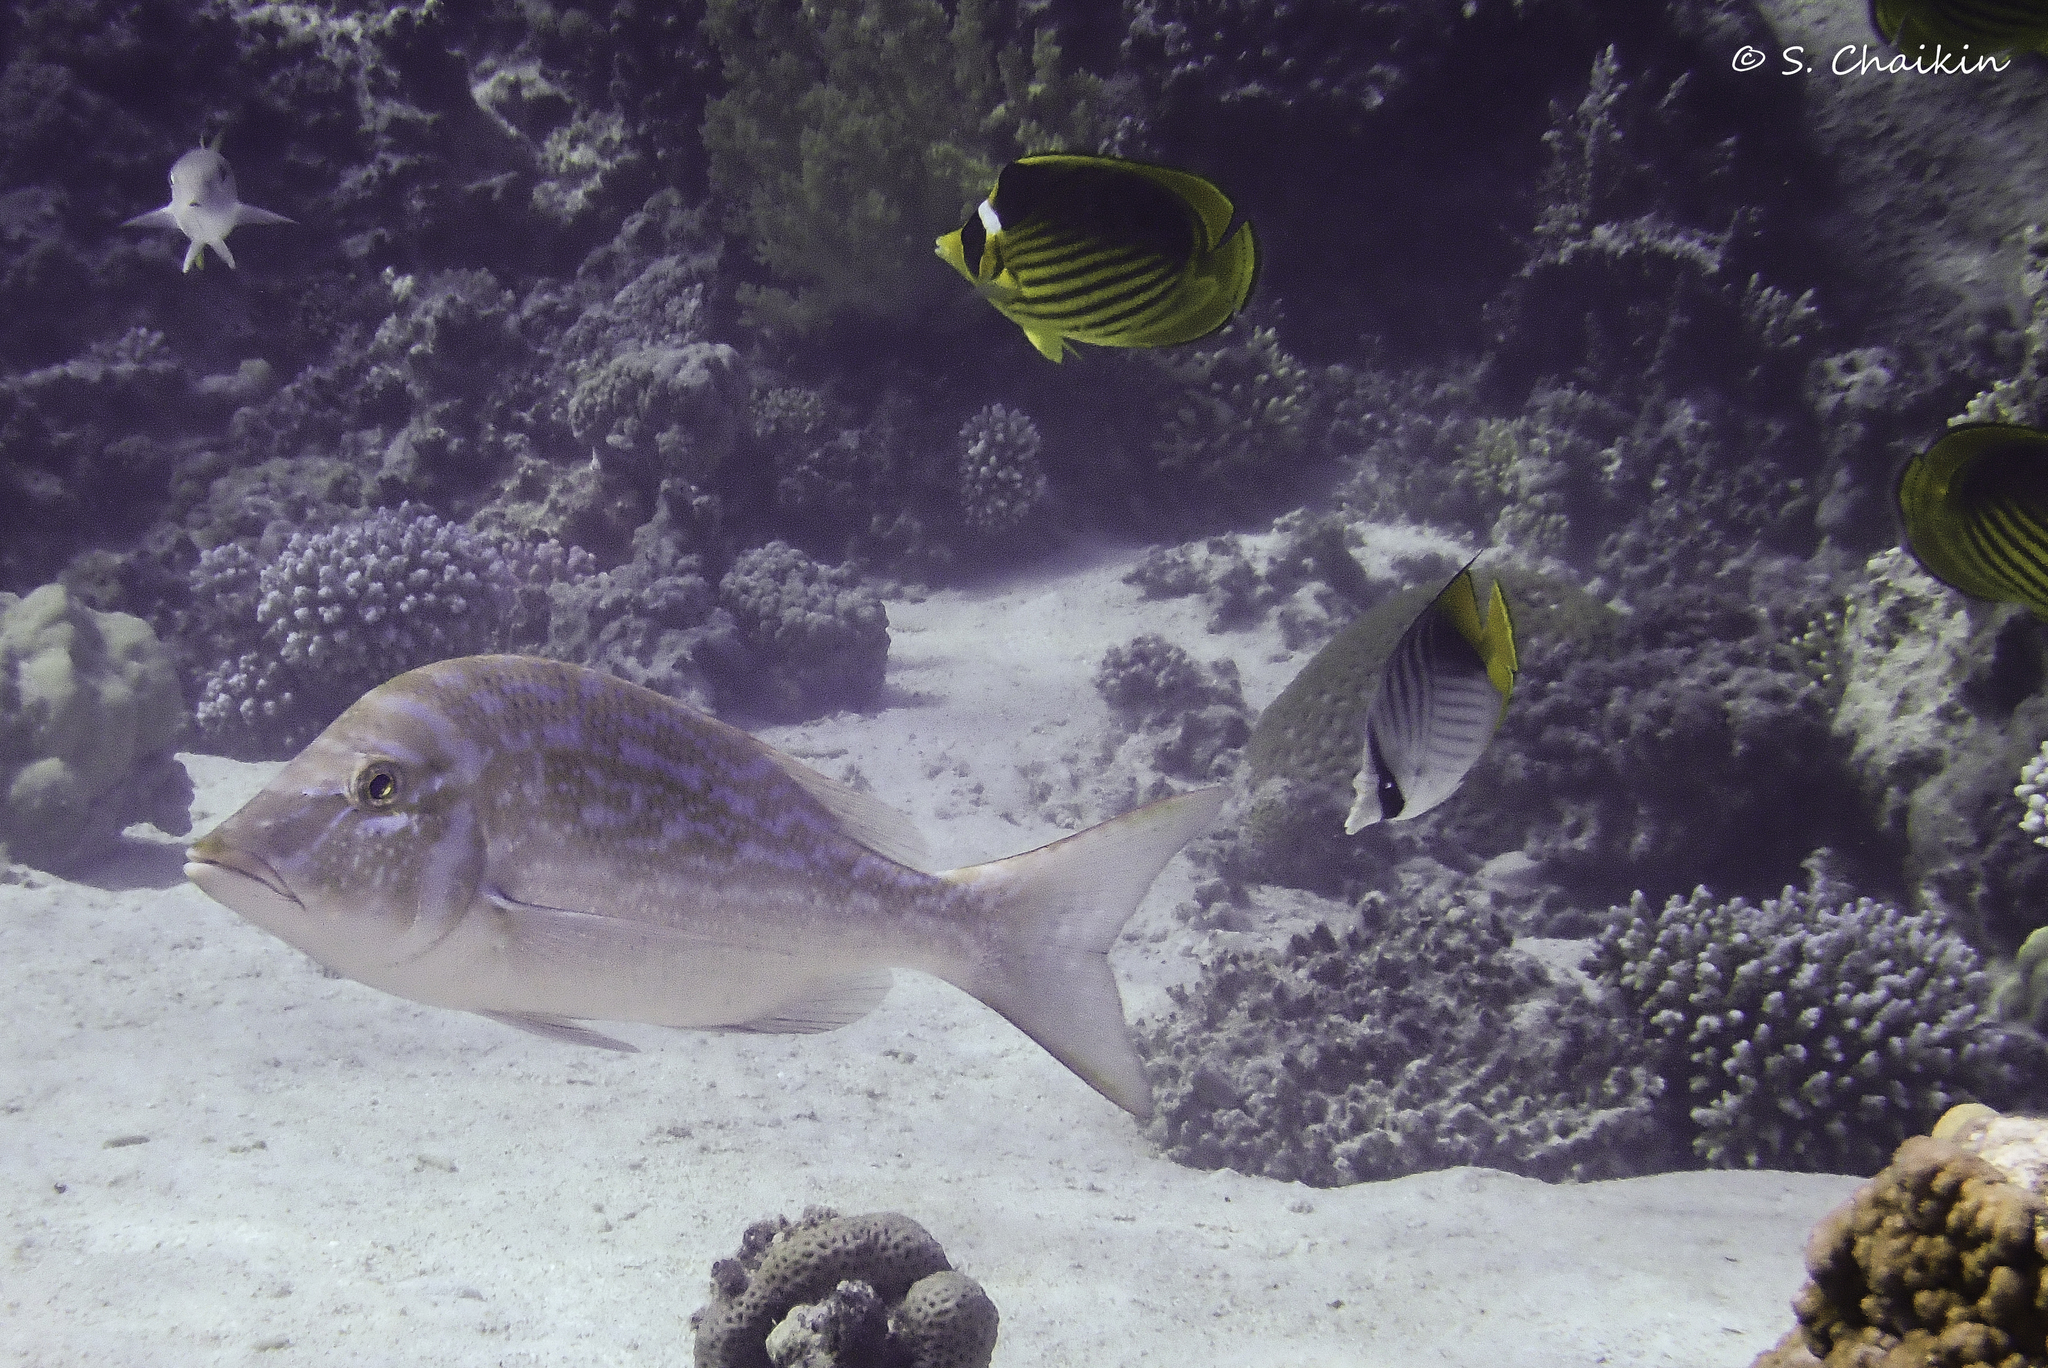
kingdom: Animalia
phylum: Chordata
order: Perciformes
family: Lethrinidae
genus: Lethrinus
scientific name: Lethrinus nebulosus
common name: Spangled emperor
